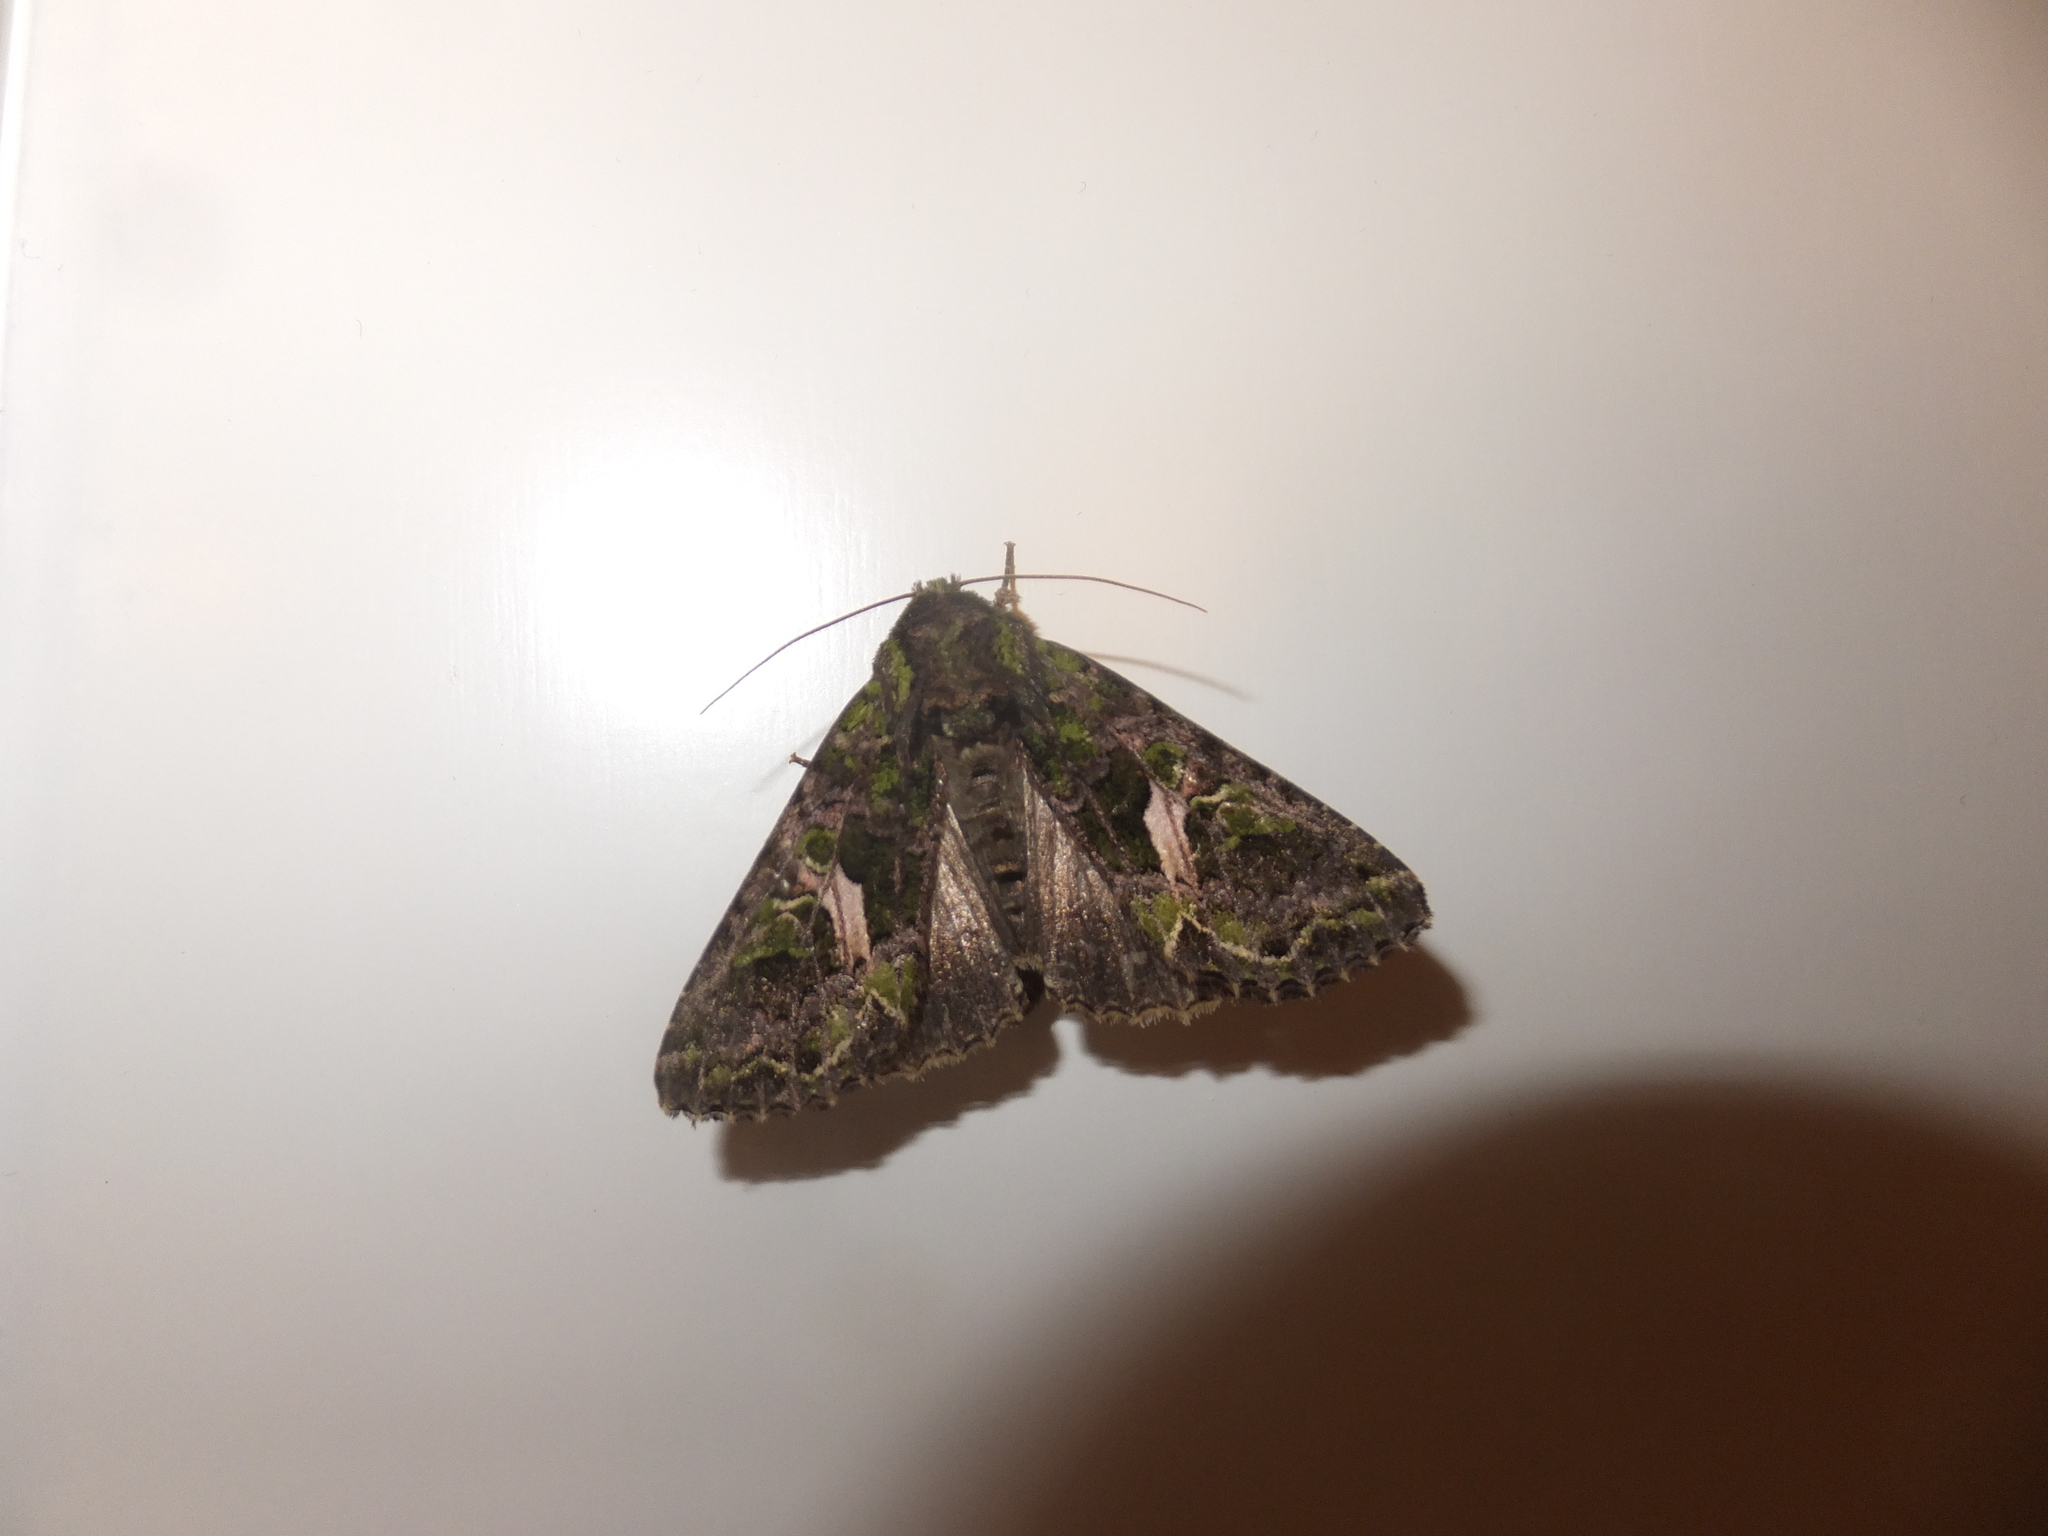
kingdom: Animalia
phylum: Arthropoda
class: Insecta
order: Lepidoptera
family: Noctuidae
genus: Trachea
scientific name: Trachea atriplicis
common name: Orache moth
